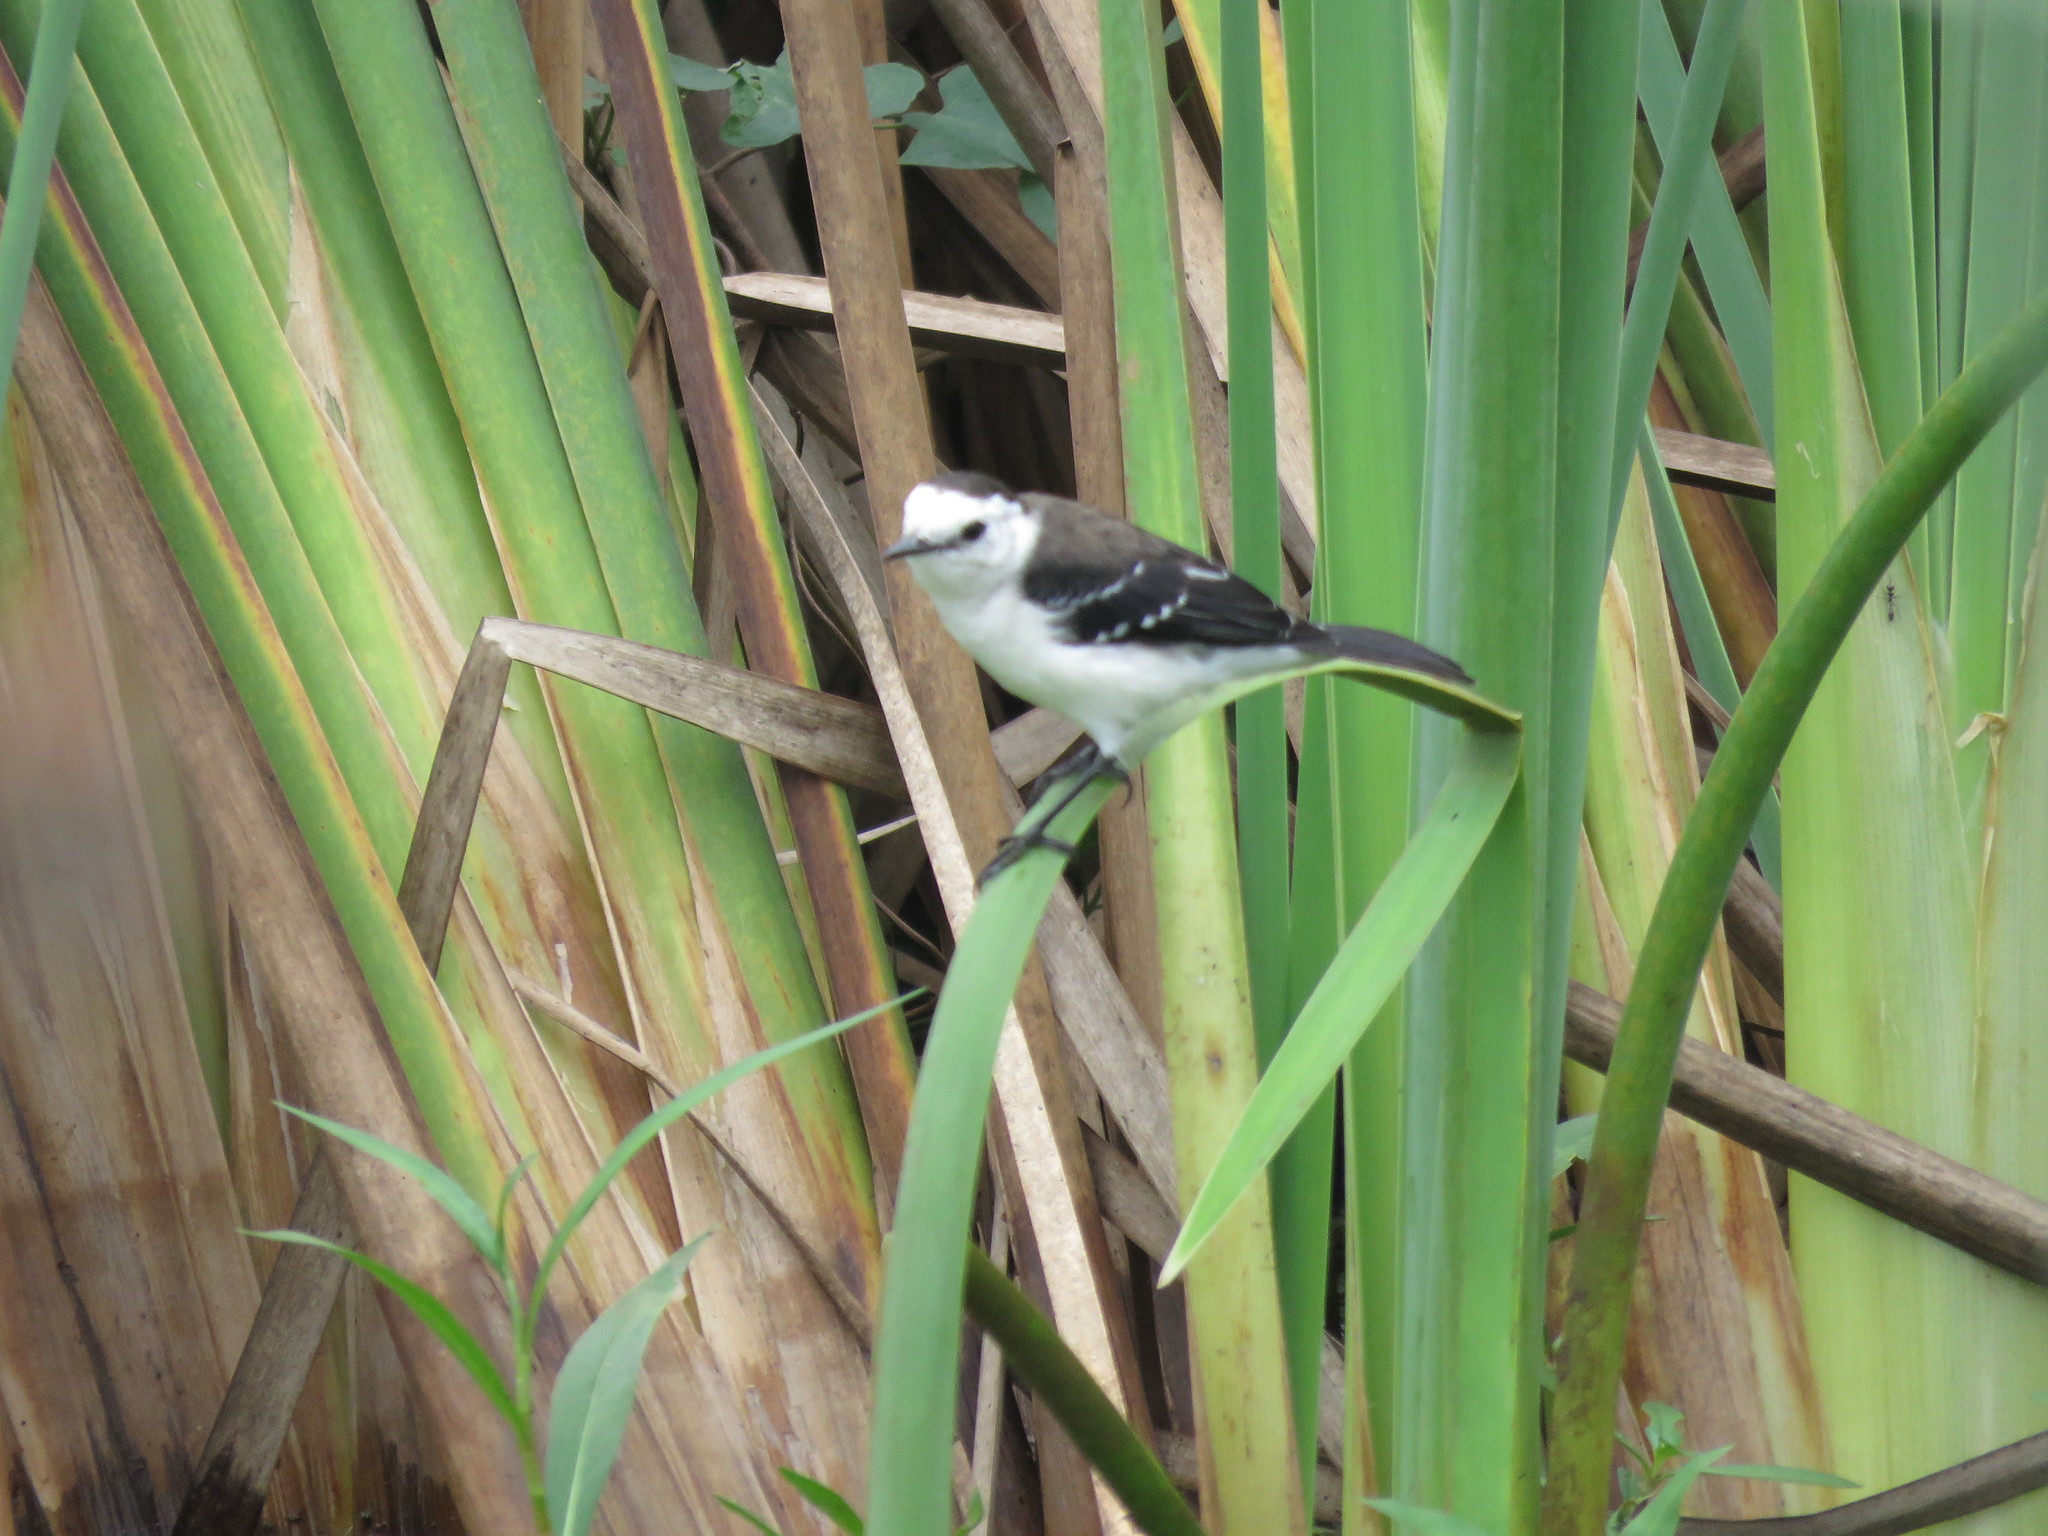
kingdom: Animalia
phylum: Chordata
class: Aves
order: Passeriformes
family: Tyrannidae
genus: Fluvicola
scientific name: Fluvicola pica
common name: Pied water-tyrant
